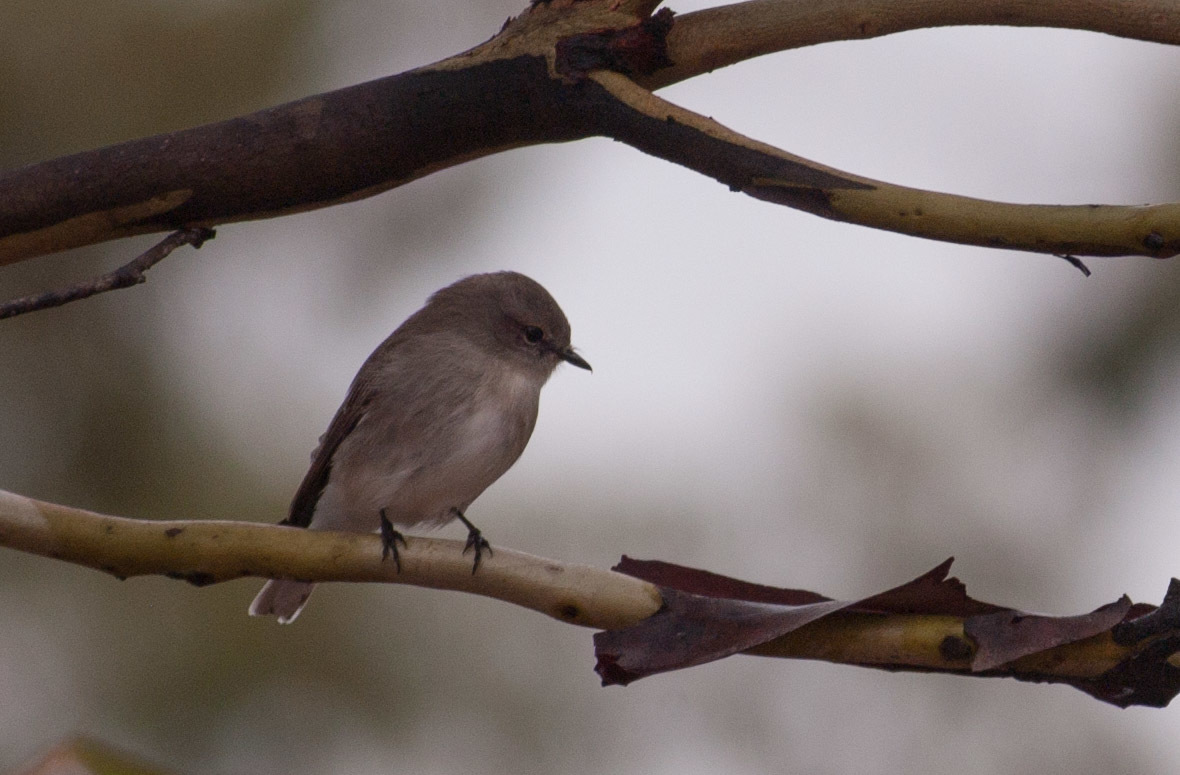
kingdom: Animalia
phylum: Chordata
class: Aves
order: Passeriformes
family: Petroicidae
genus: Microeca
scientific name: Microeca fascinans
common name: Jacky winter
